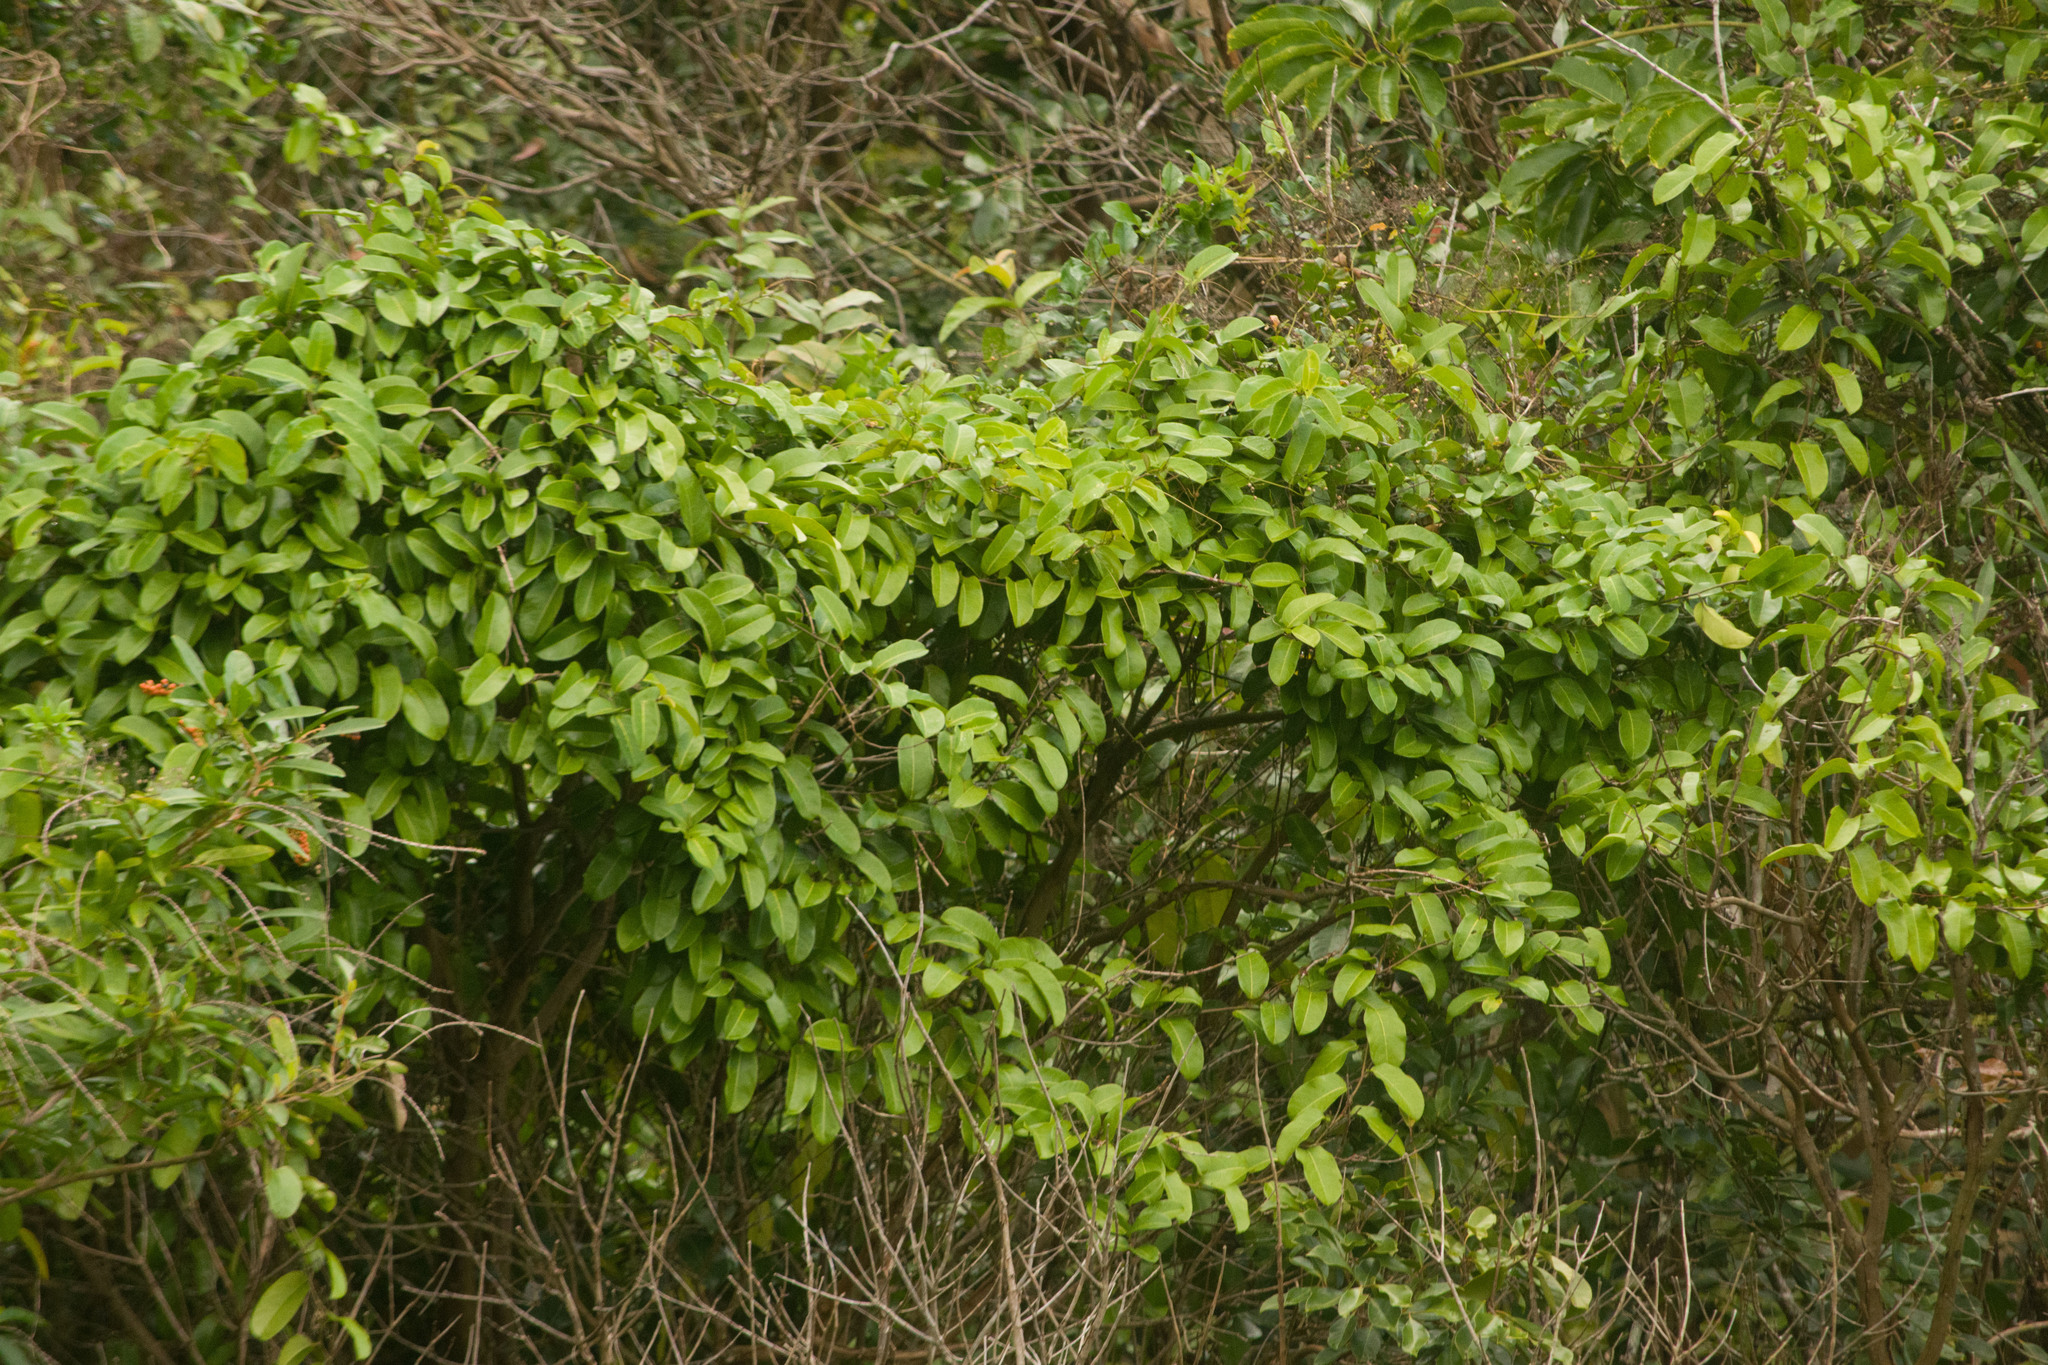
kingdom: Plantae
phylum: Tracheophyta
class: Magnoliopsida
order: Malpighiales
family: Passifloraceae
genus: Passiflora
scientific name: Passiflora laurifolia
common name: Bell apple
